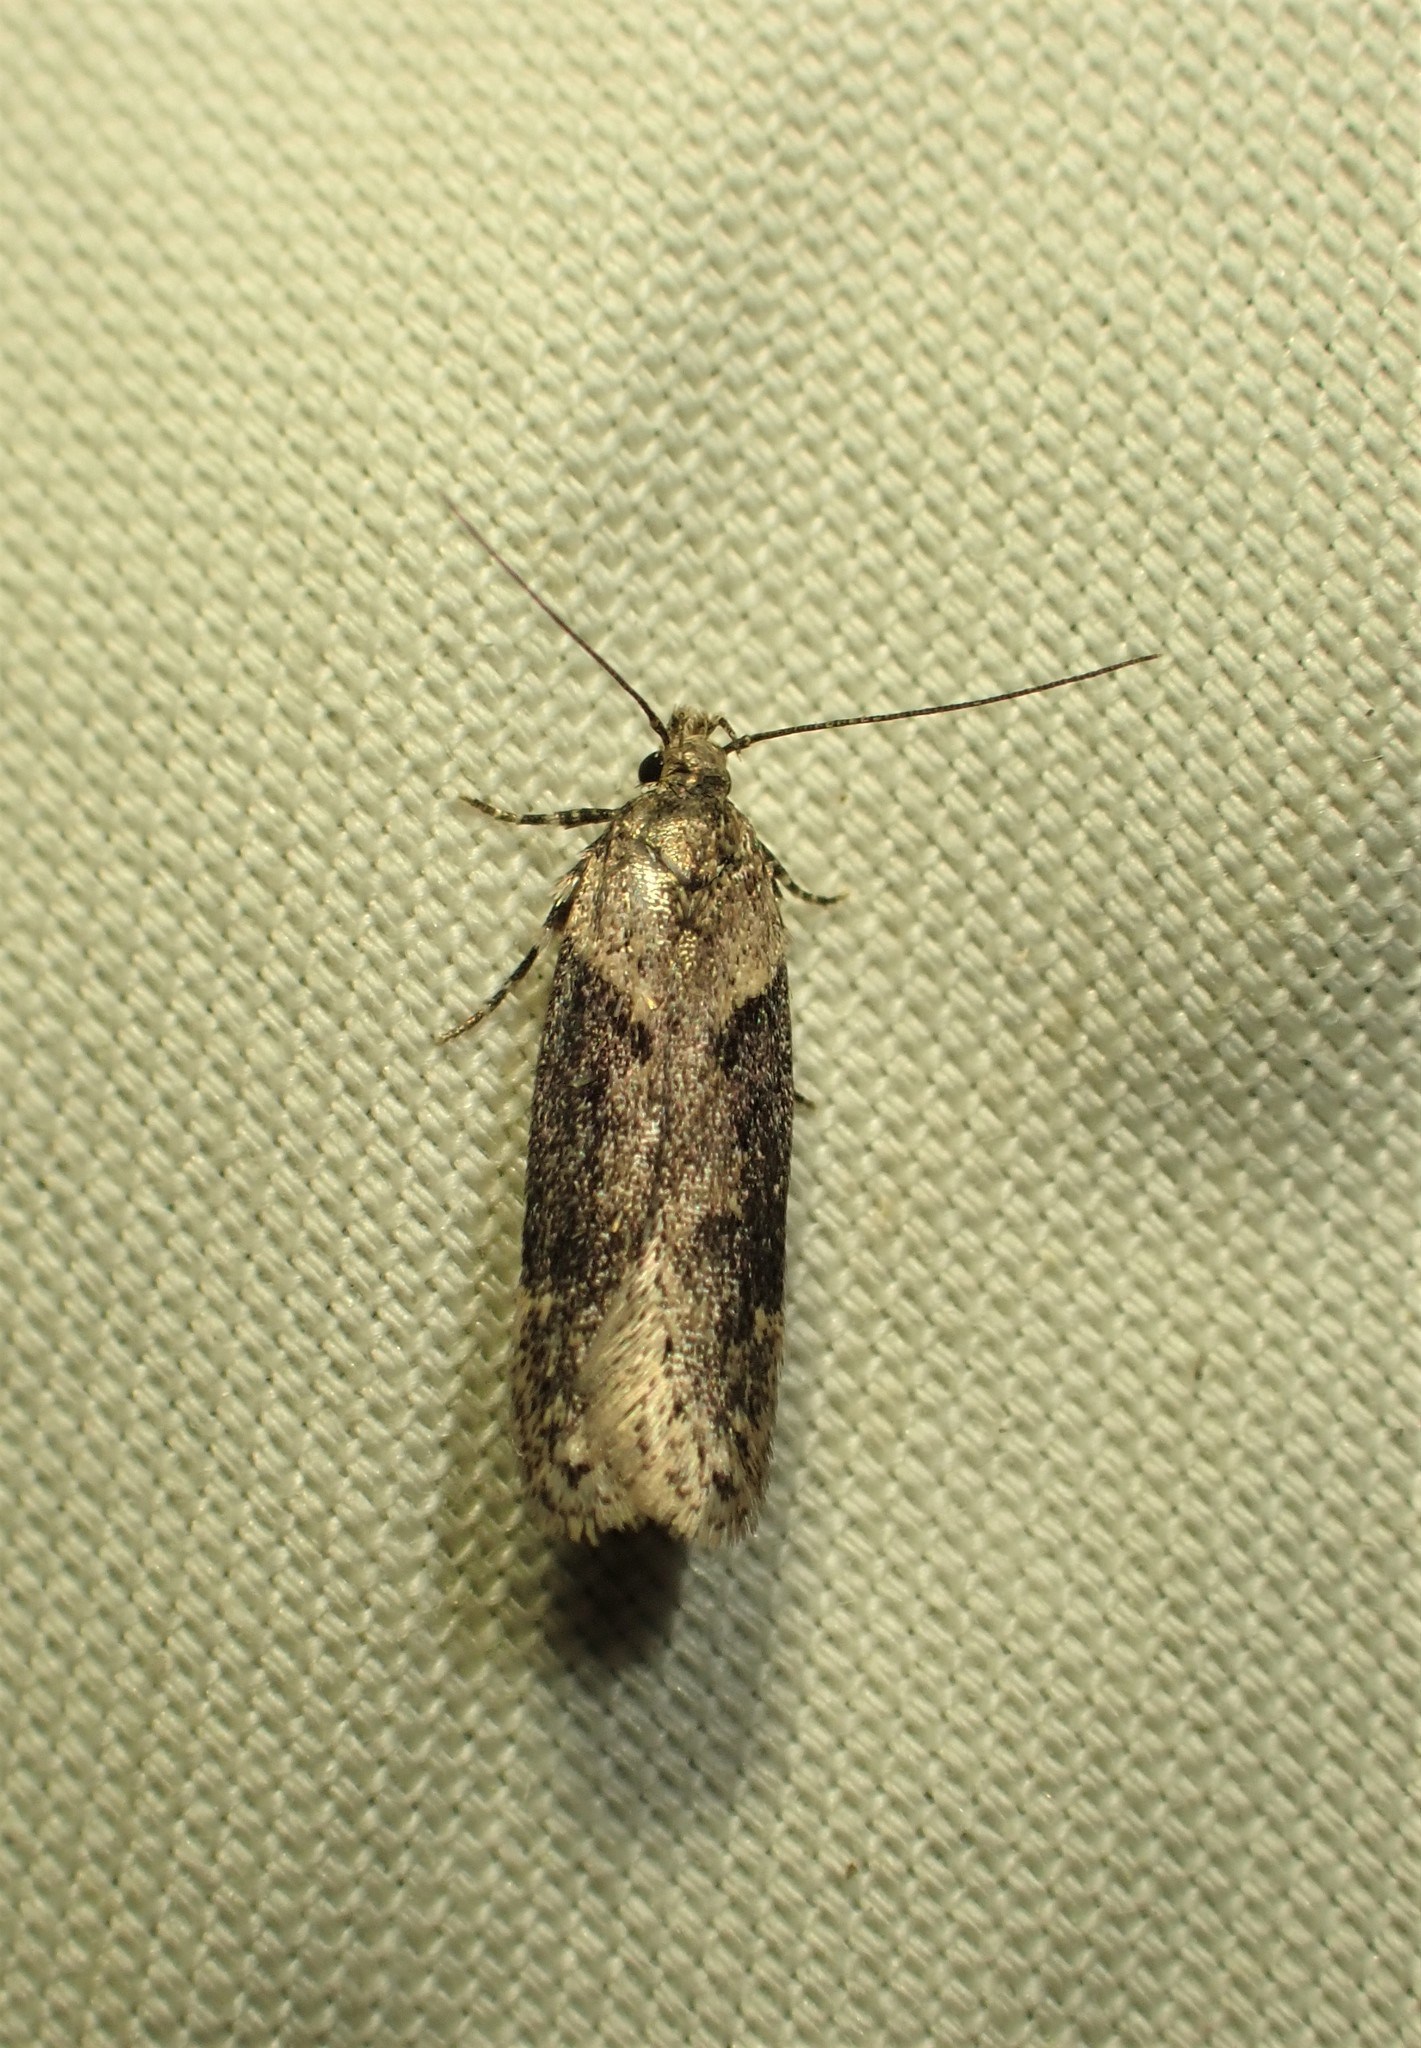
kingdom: Animalia
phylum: Arthropoda
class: Insecta
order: Lepidoptera
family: Gelechiidae
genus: Chionodes
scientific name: Chionodes mediofuscella
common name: Black-smudged chionodes moth
